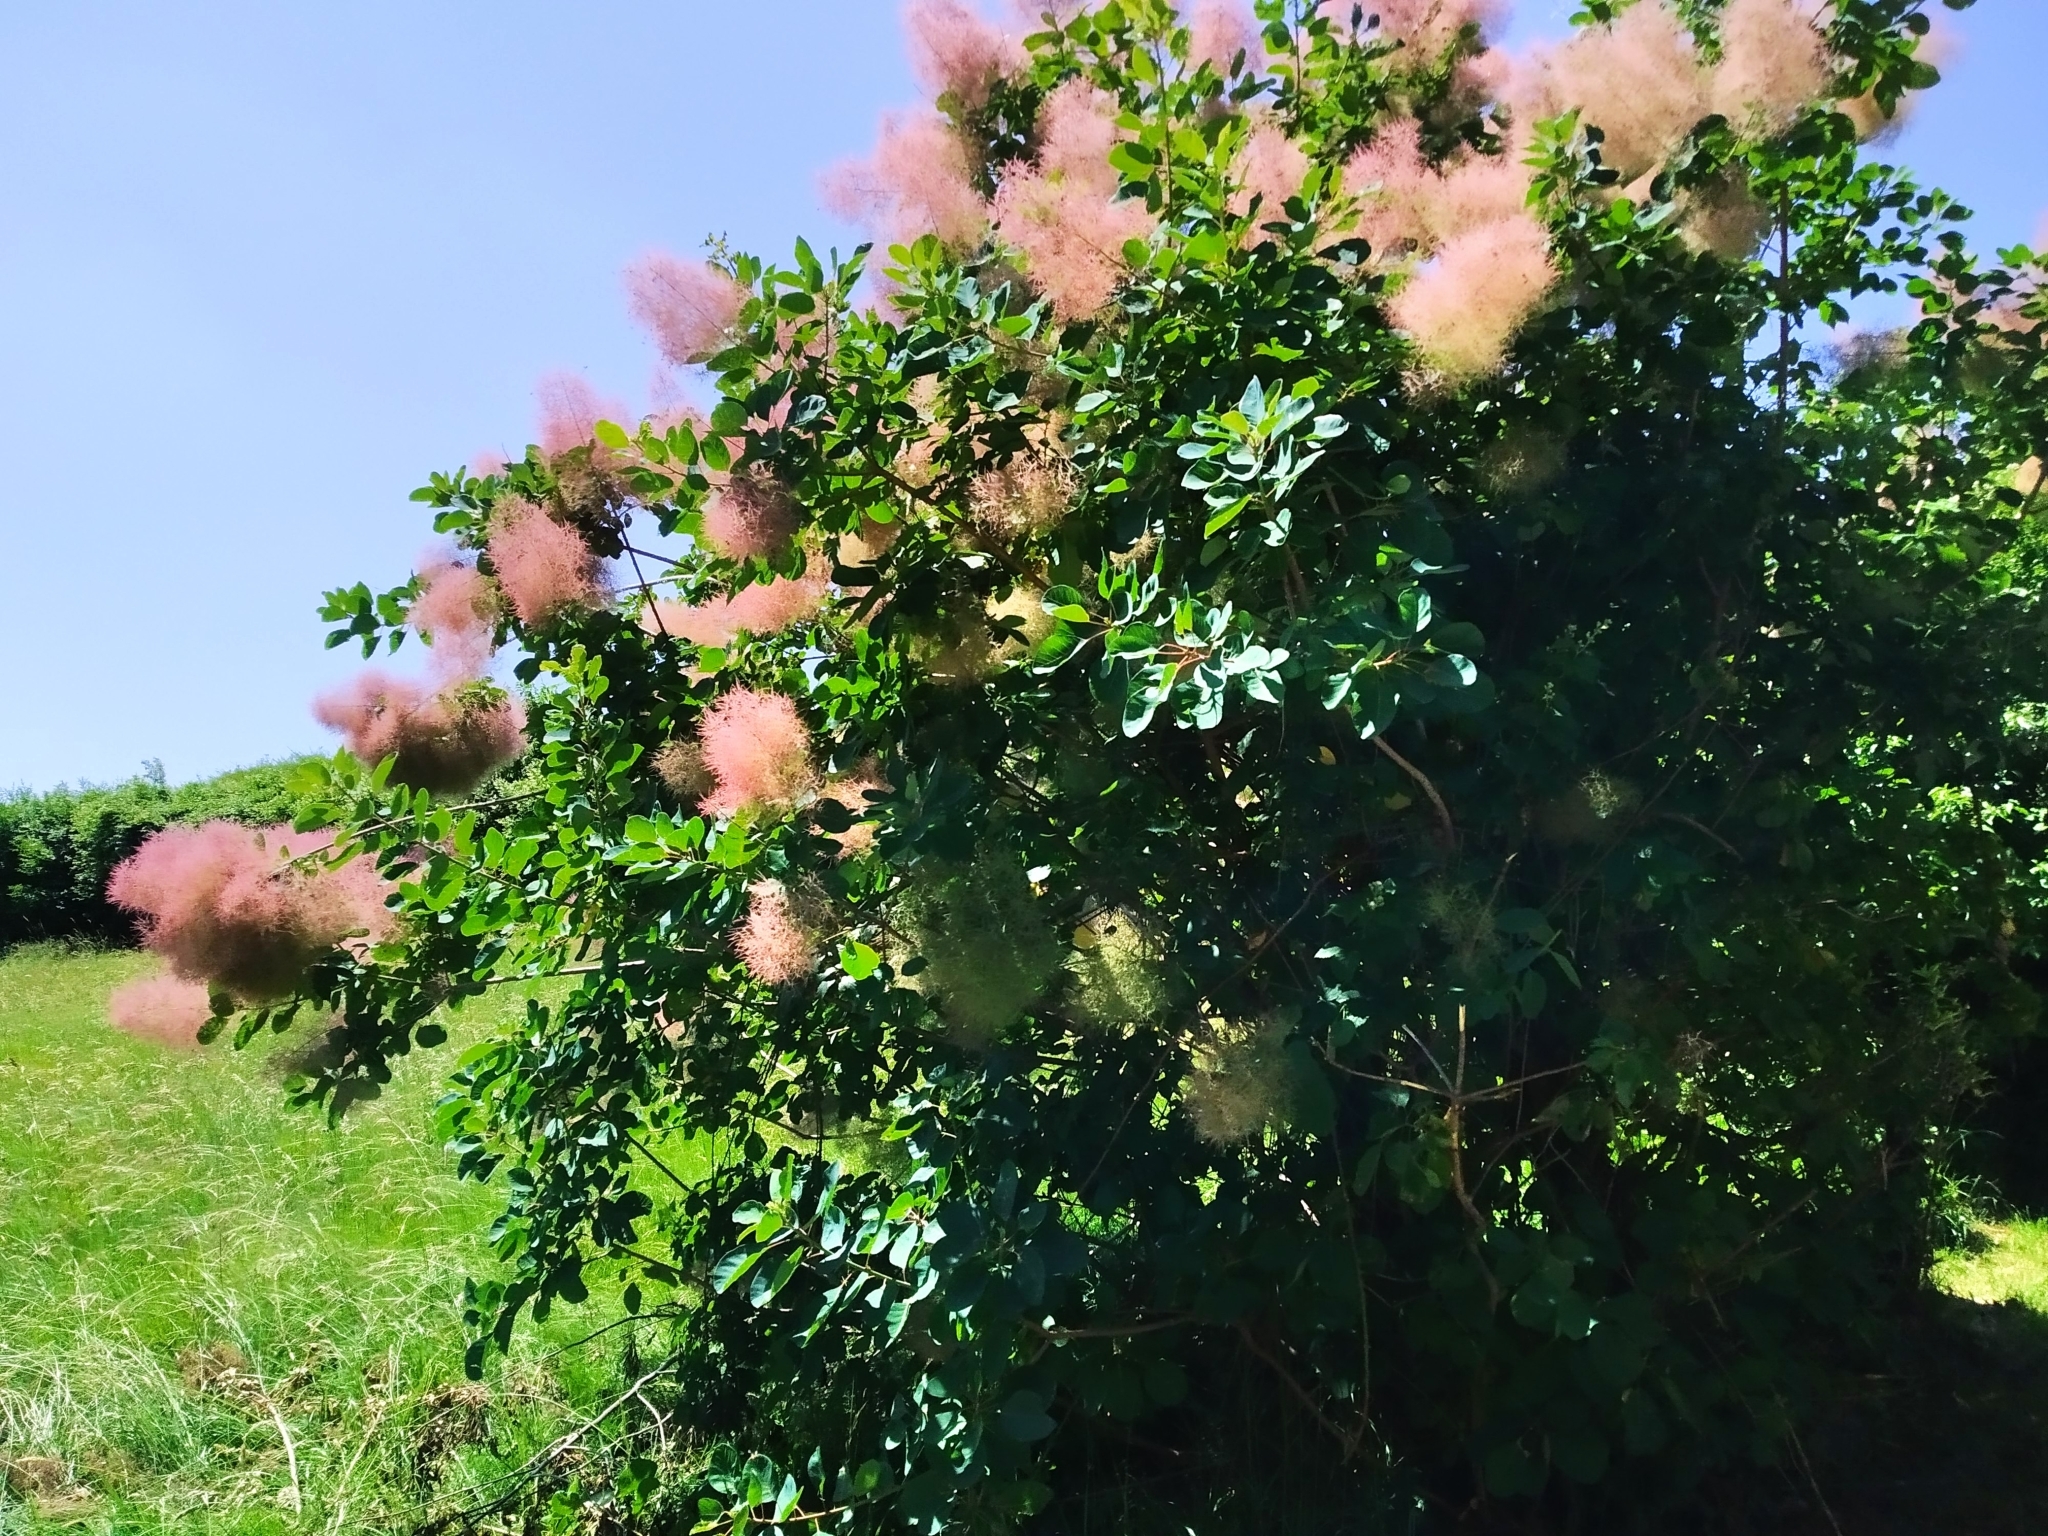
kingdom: Plantae
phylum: Tracheophyta
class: Magnoliopsida
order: Sapindales
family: Anacardiaceae
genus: Cotinus
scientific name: Cotinus coggygria
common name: Smoke-tree
